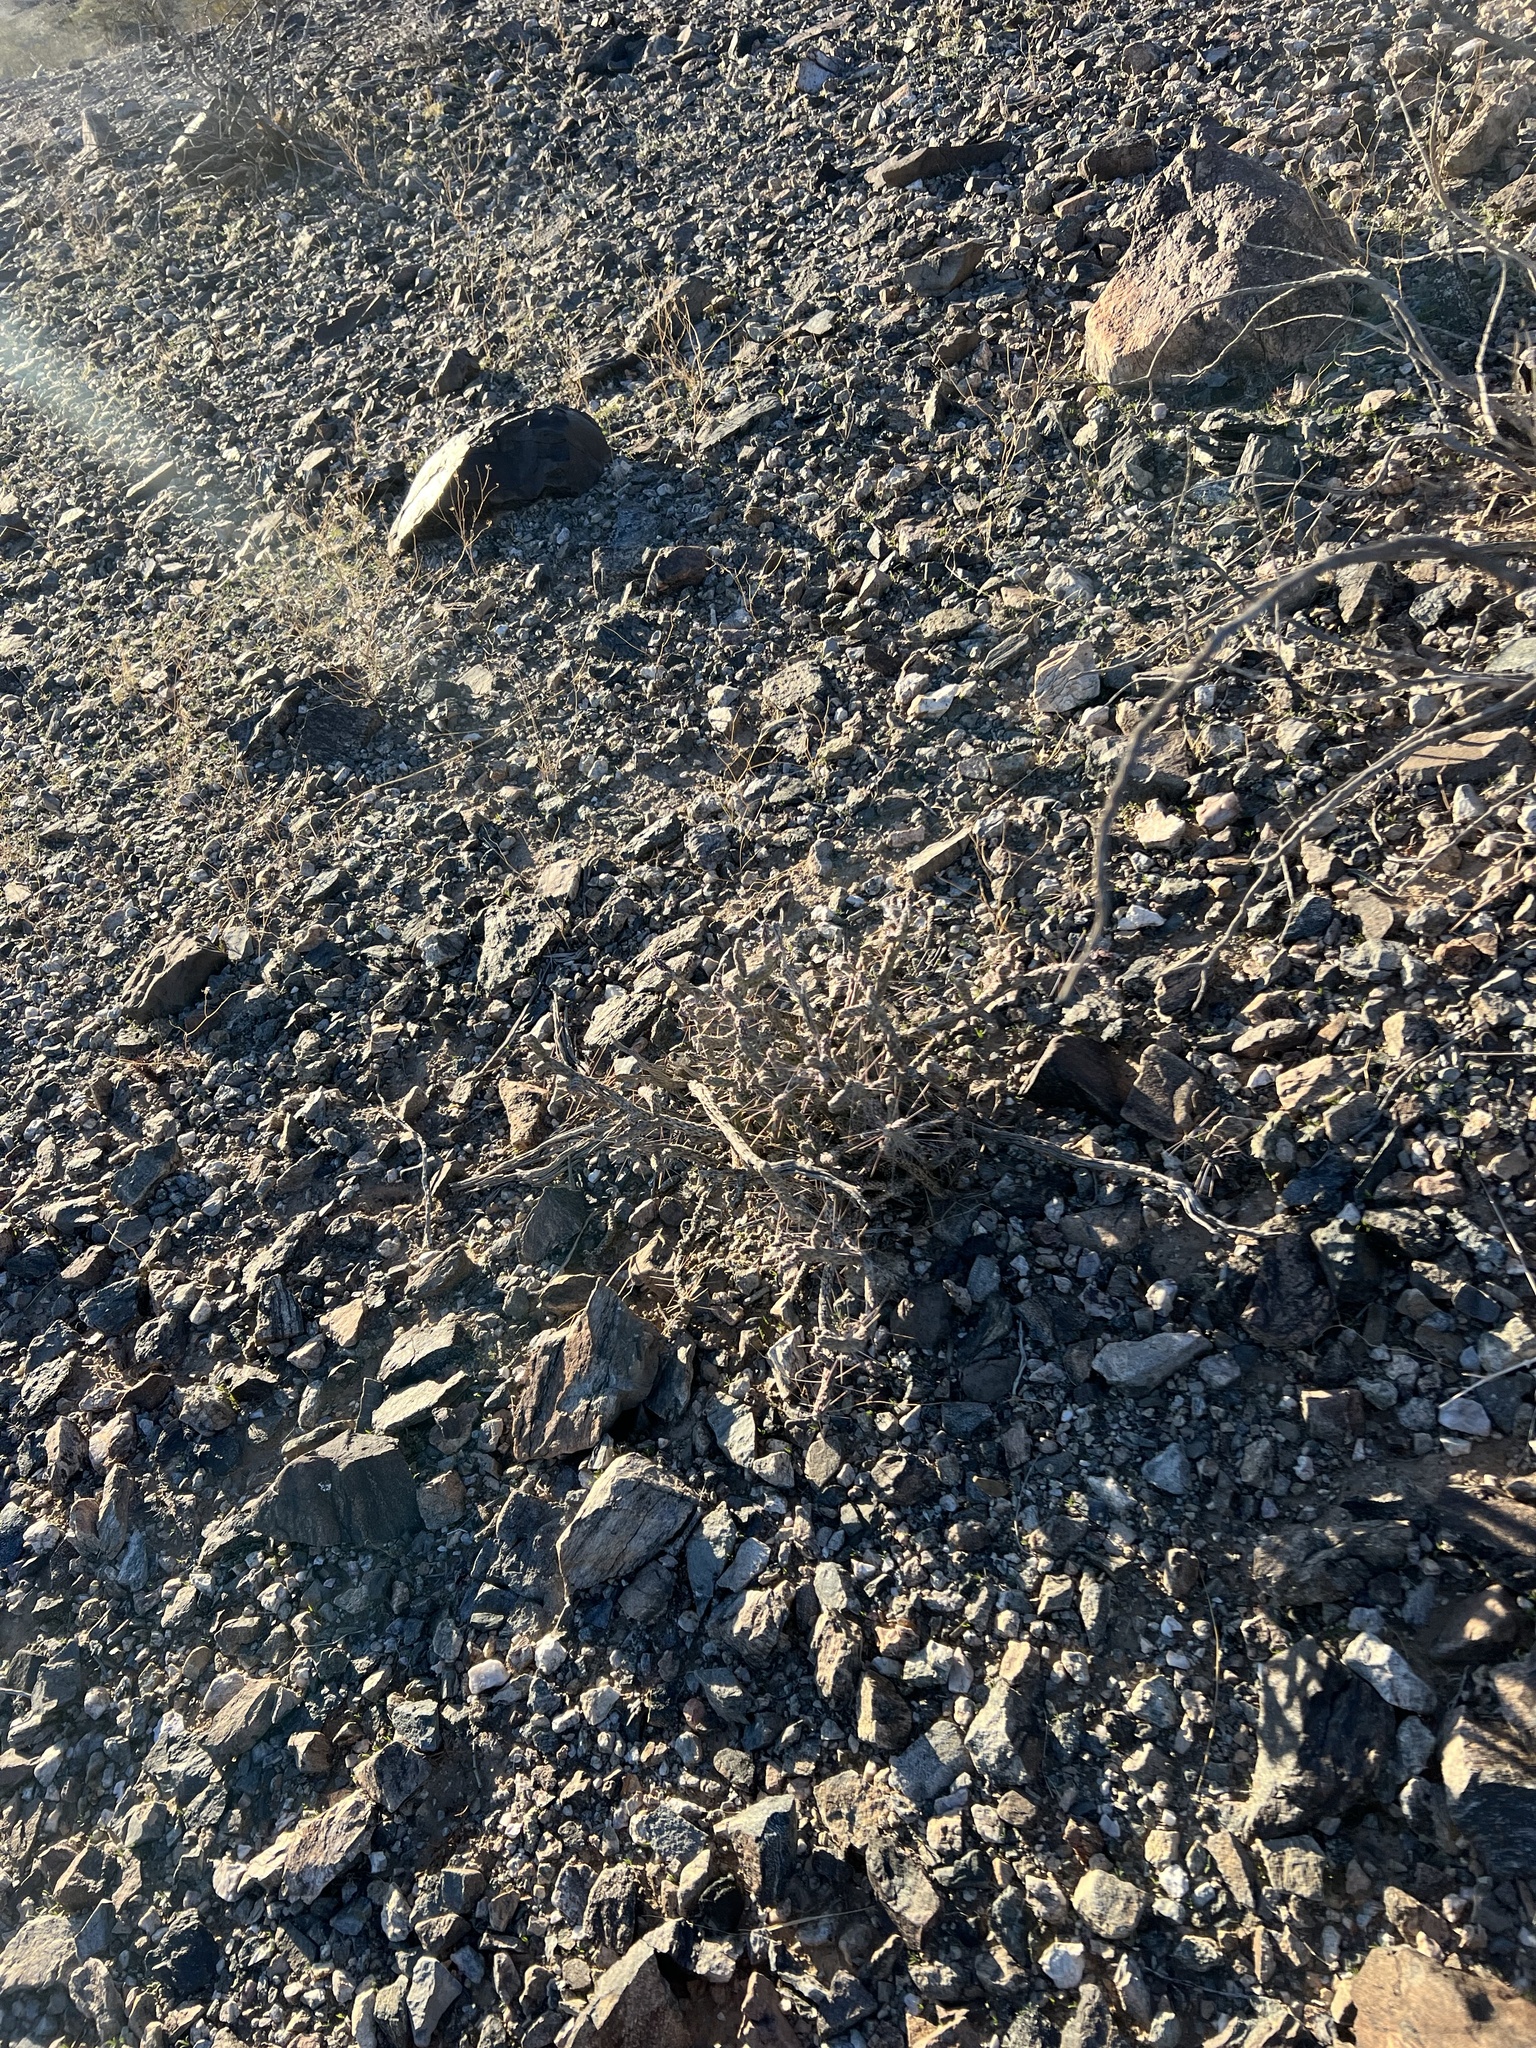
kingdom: Plantae
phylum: Tracheophyta
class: Magnoliopsida
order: Caryophyllales
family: Cactaceae
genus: Cylindropuntia
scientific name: Cylindropuntia ramosissima
